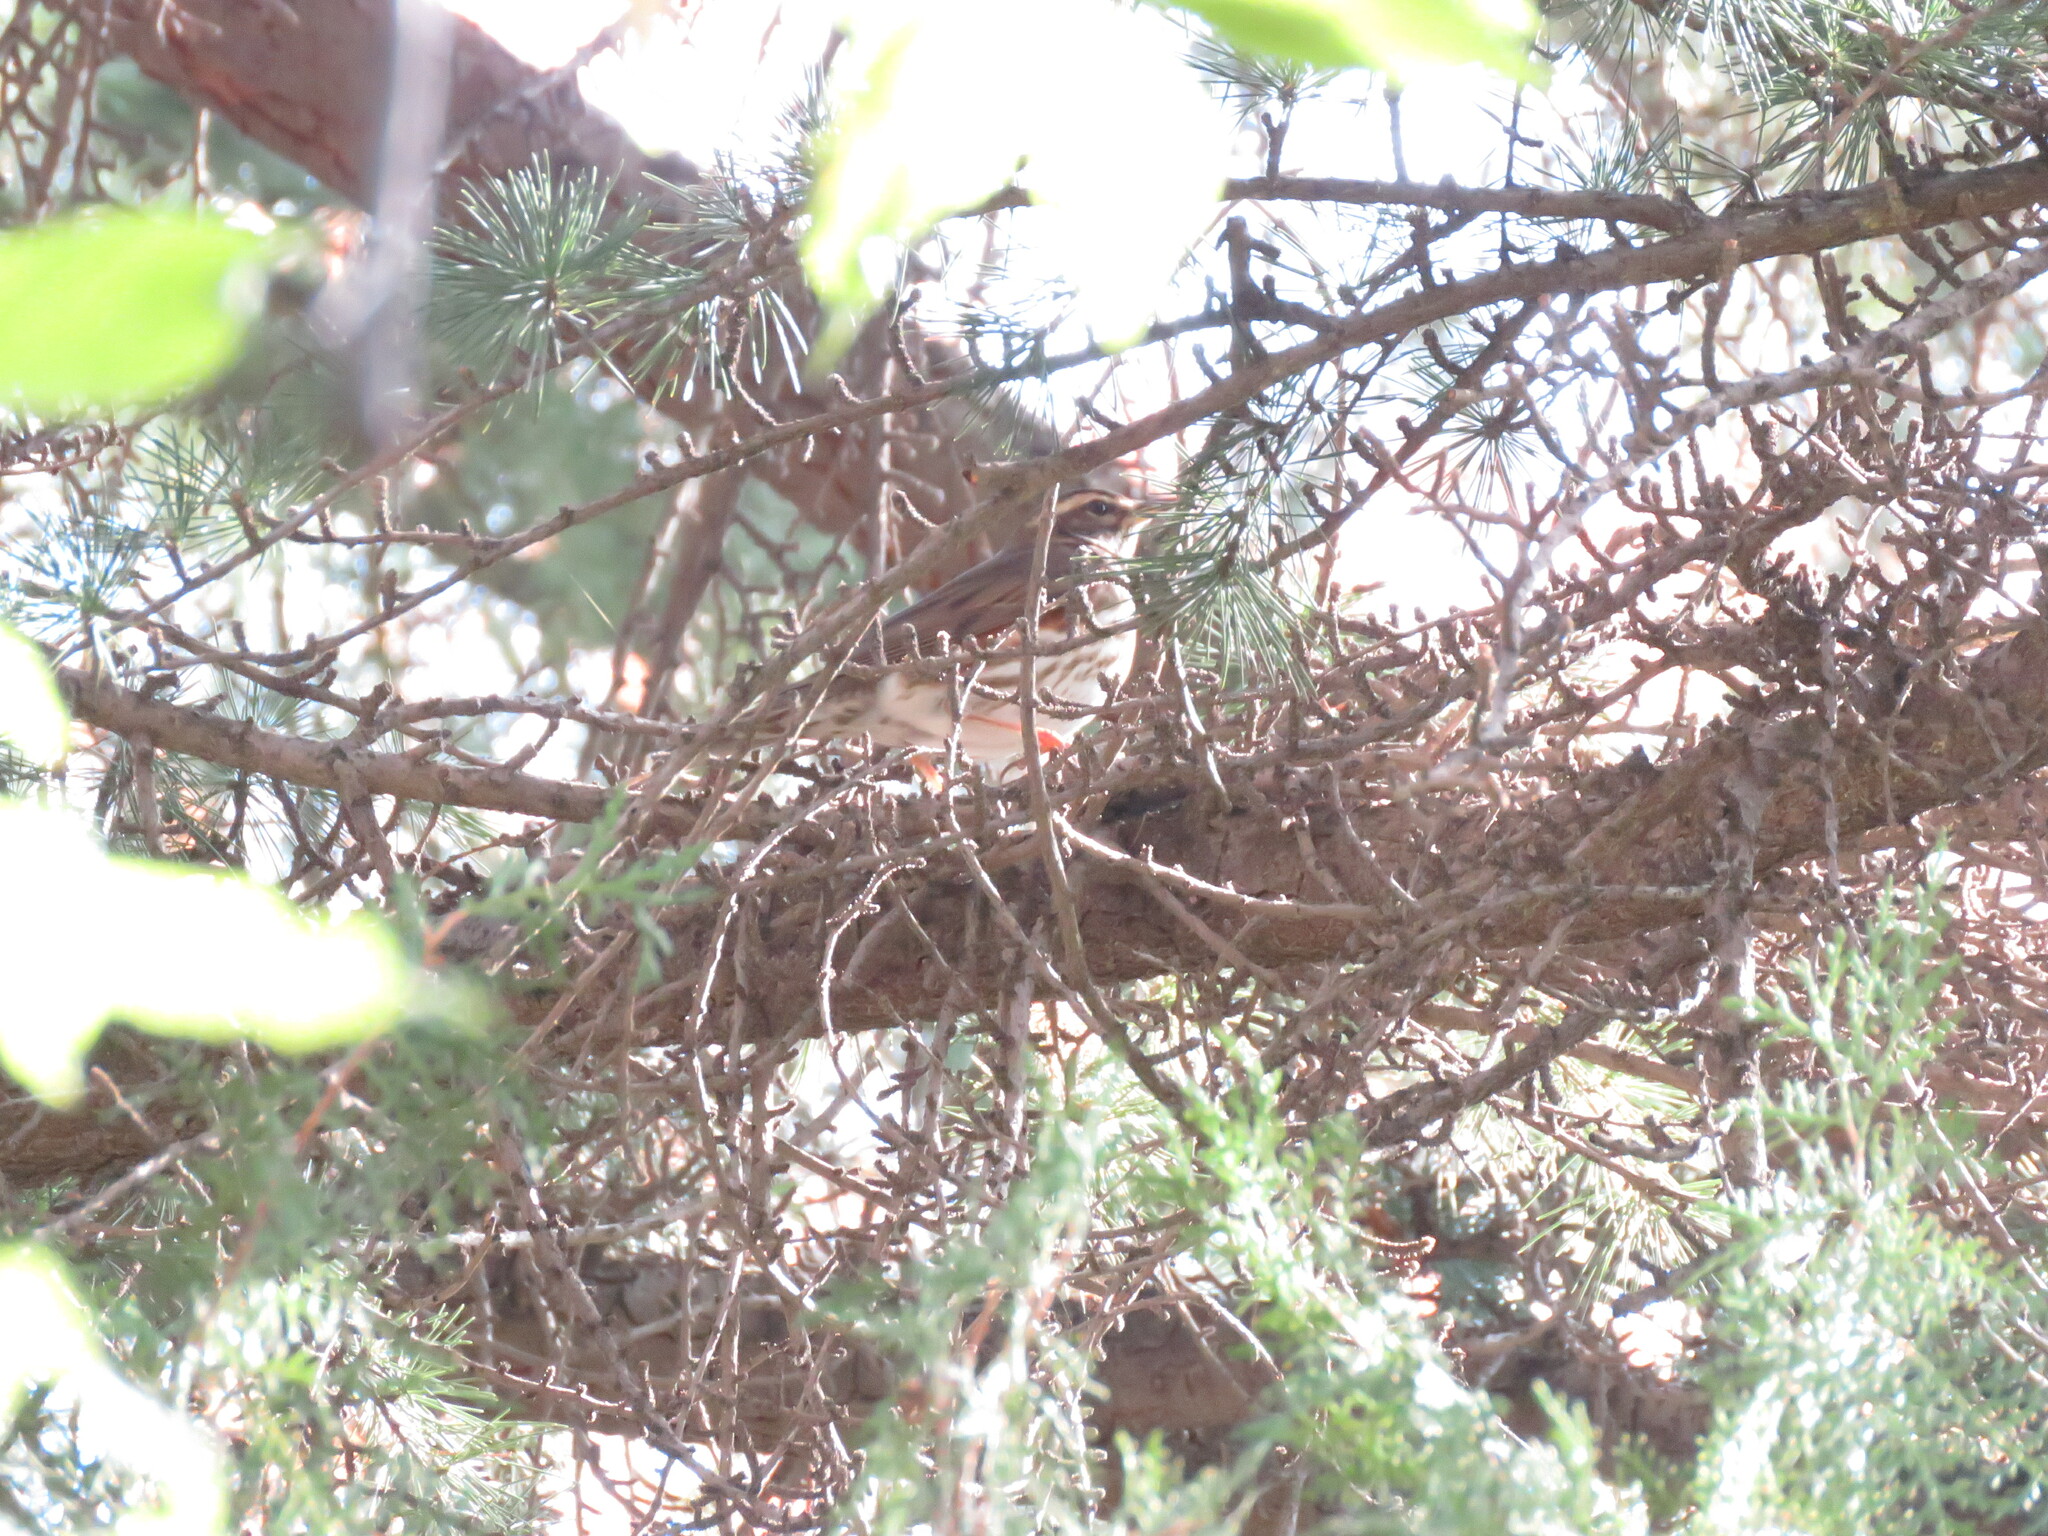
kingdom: Animalia
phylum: Chordata
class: Aves
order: Passeriformes
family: Turdidae
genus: Turdus
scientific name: Turdus iliacus
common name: Redwing
